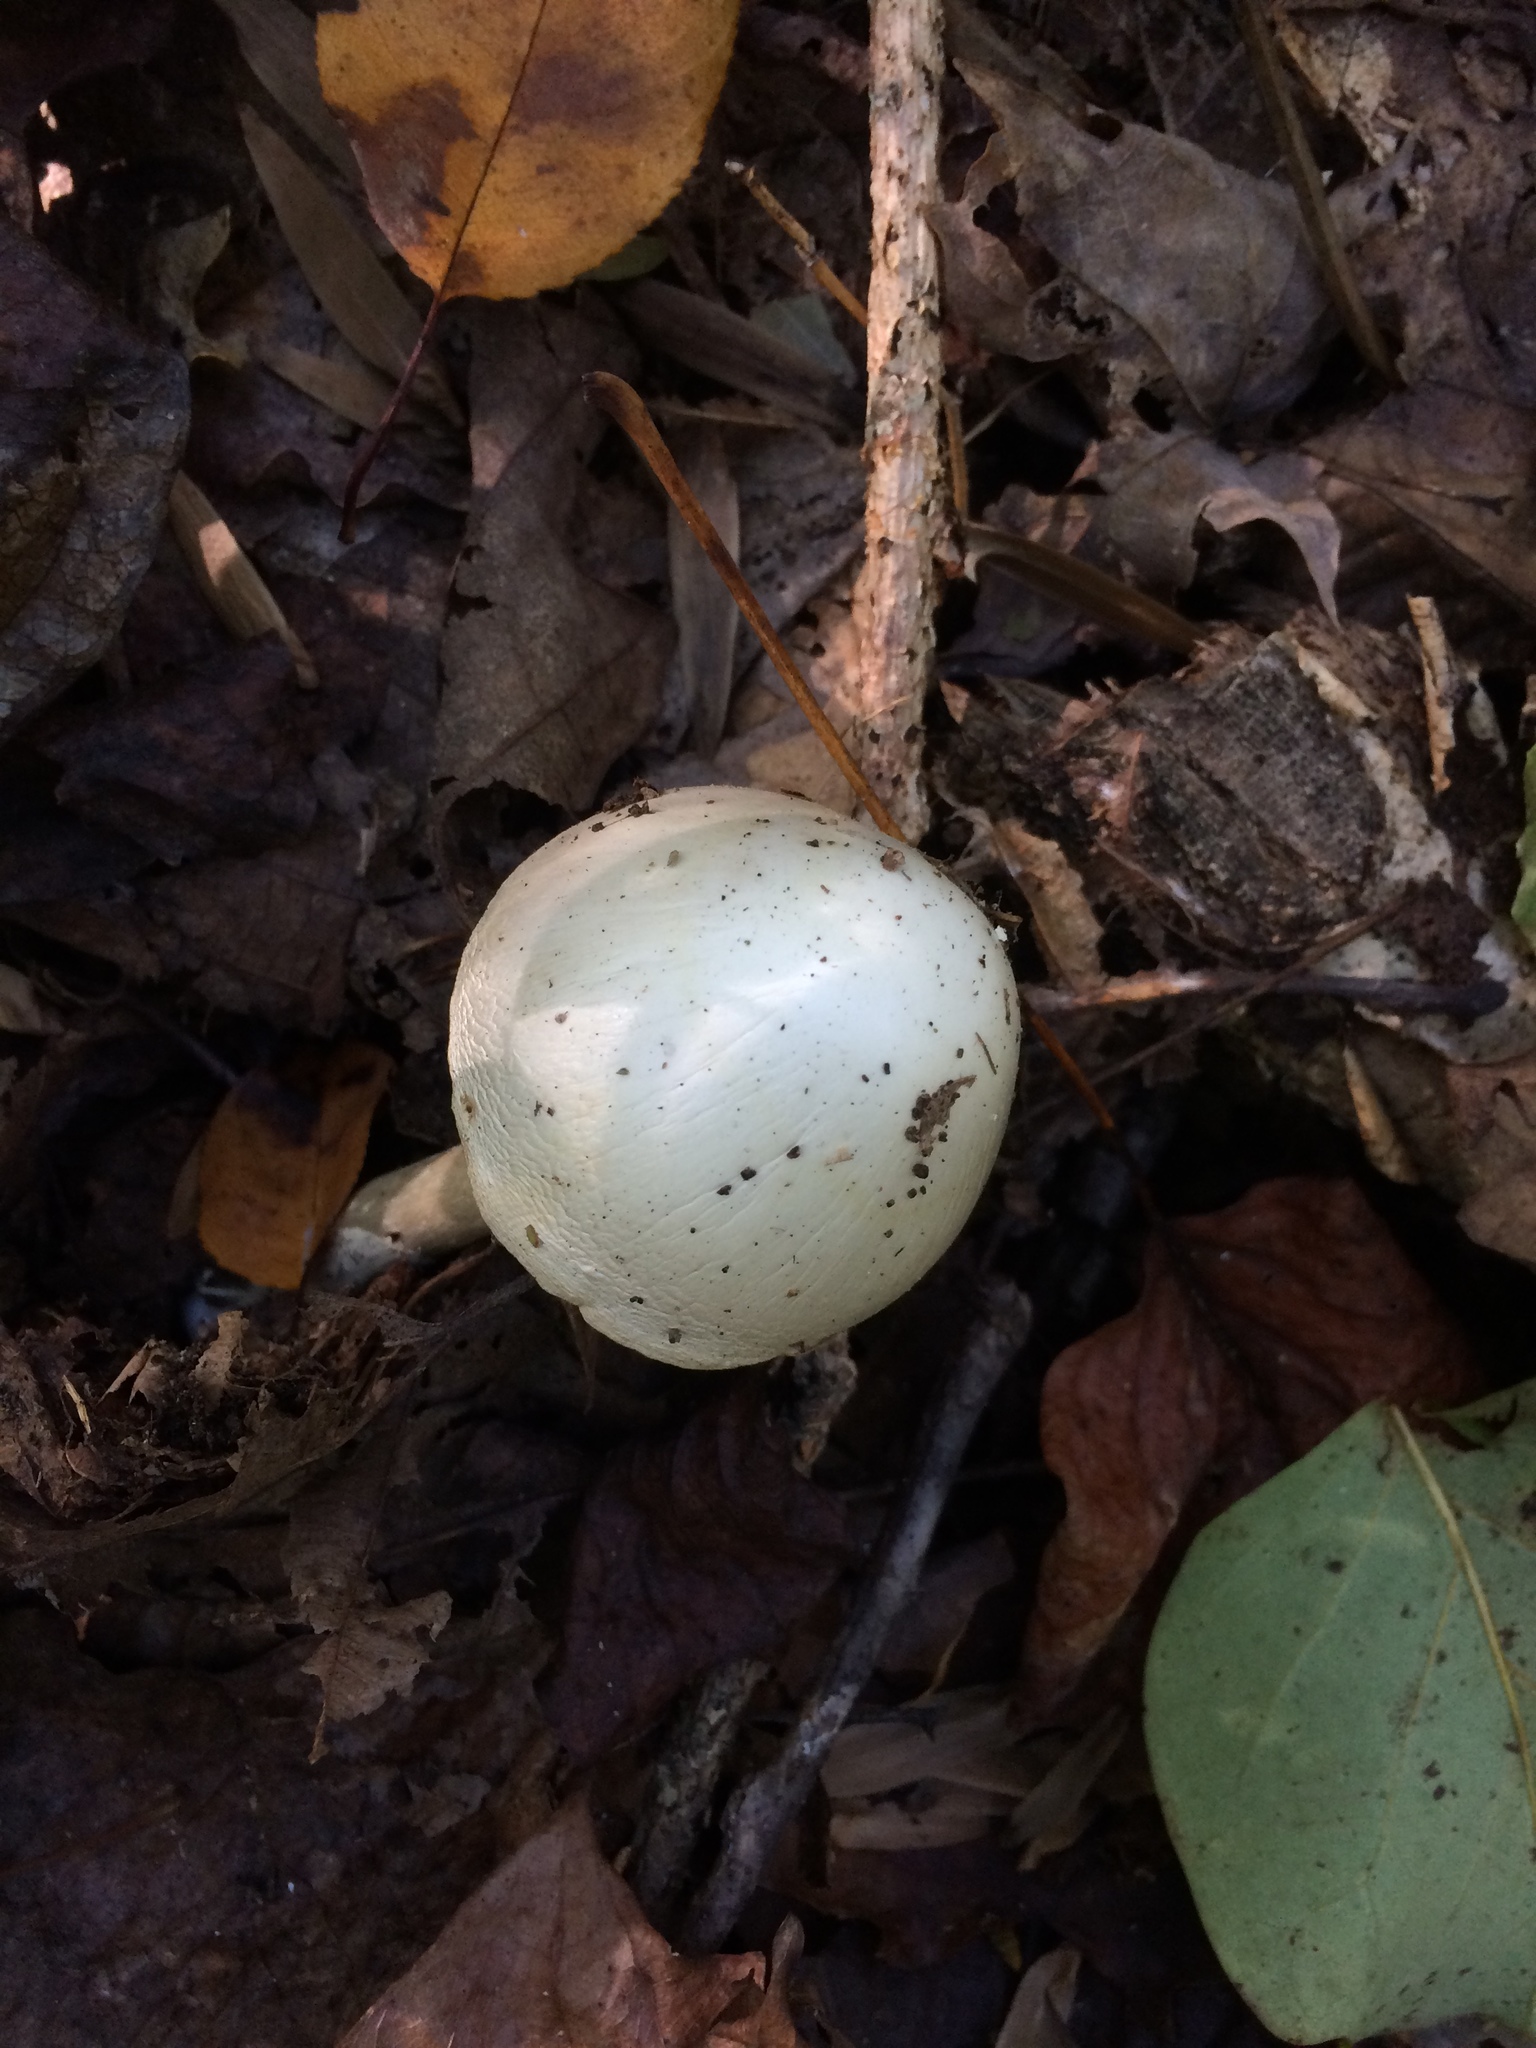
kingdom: Fungi
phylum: Basidiomycota
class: Agaricomycetes
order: Agaricales
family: Amanitaceae
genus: Amanita
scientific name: Amanita magnivelaris
